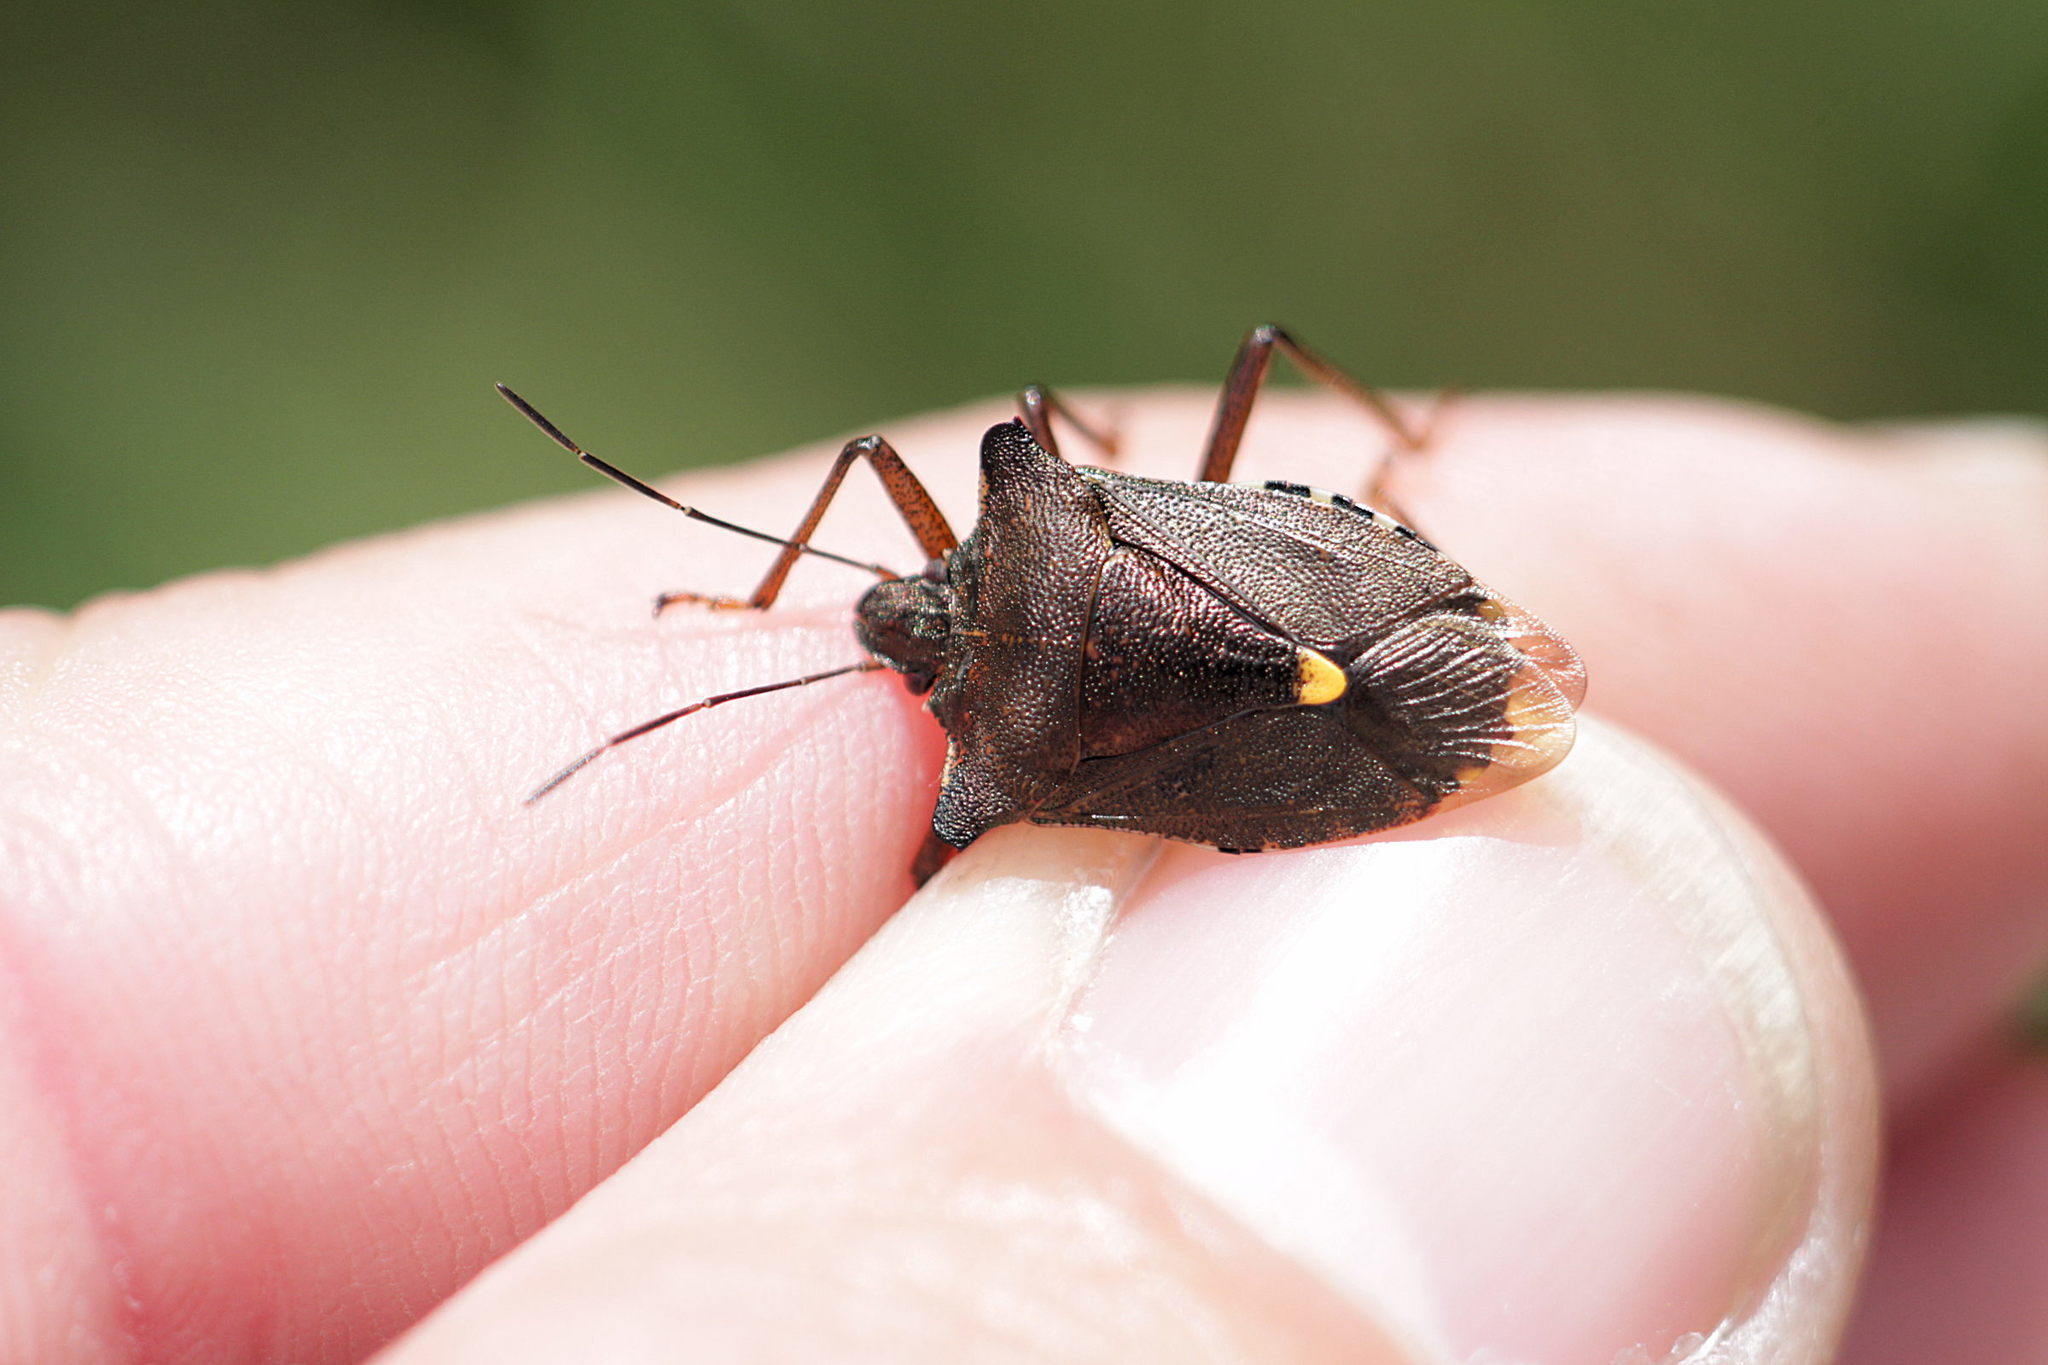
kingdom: Animalia
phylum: Arthropoda
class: Insecta
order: Hemiptera
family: Pentatomidae
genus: Pentatoma
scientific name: Pentatoma rufipes
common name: Forest bug
